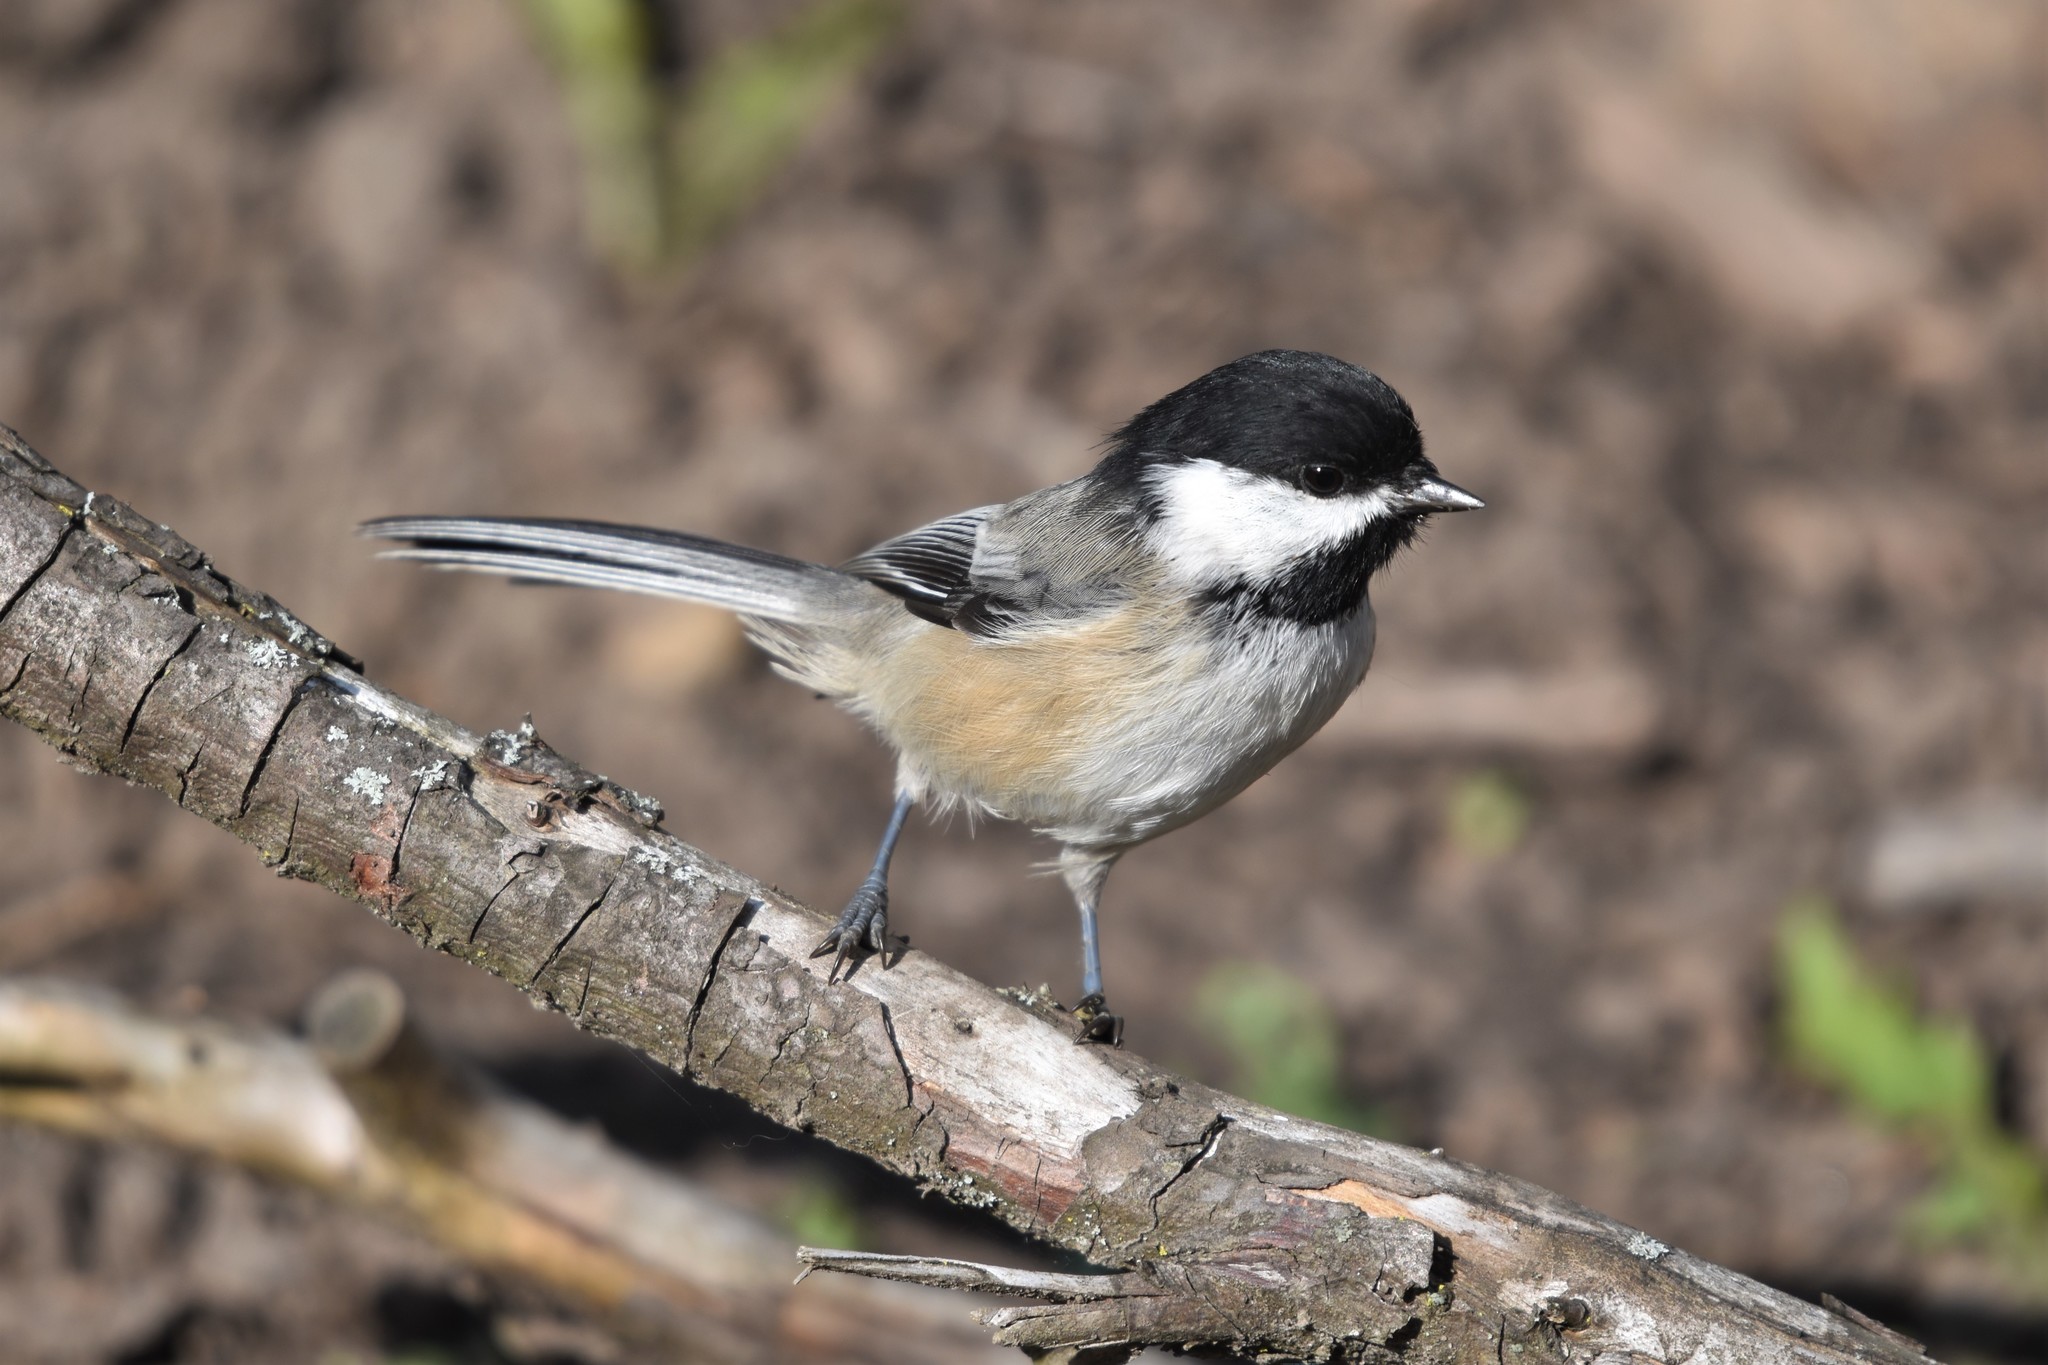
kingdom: Animalia
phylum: Chordata
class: Aves
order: Passeriformes
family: Paridae
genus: Poecile
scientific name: Poecile atricapillus
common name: Black-capped chickadee
